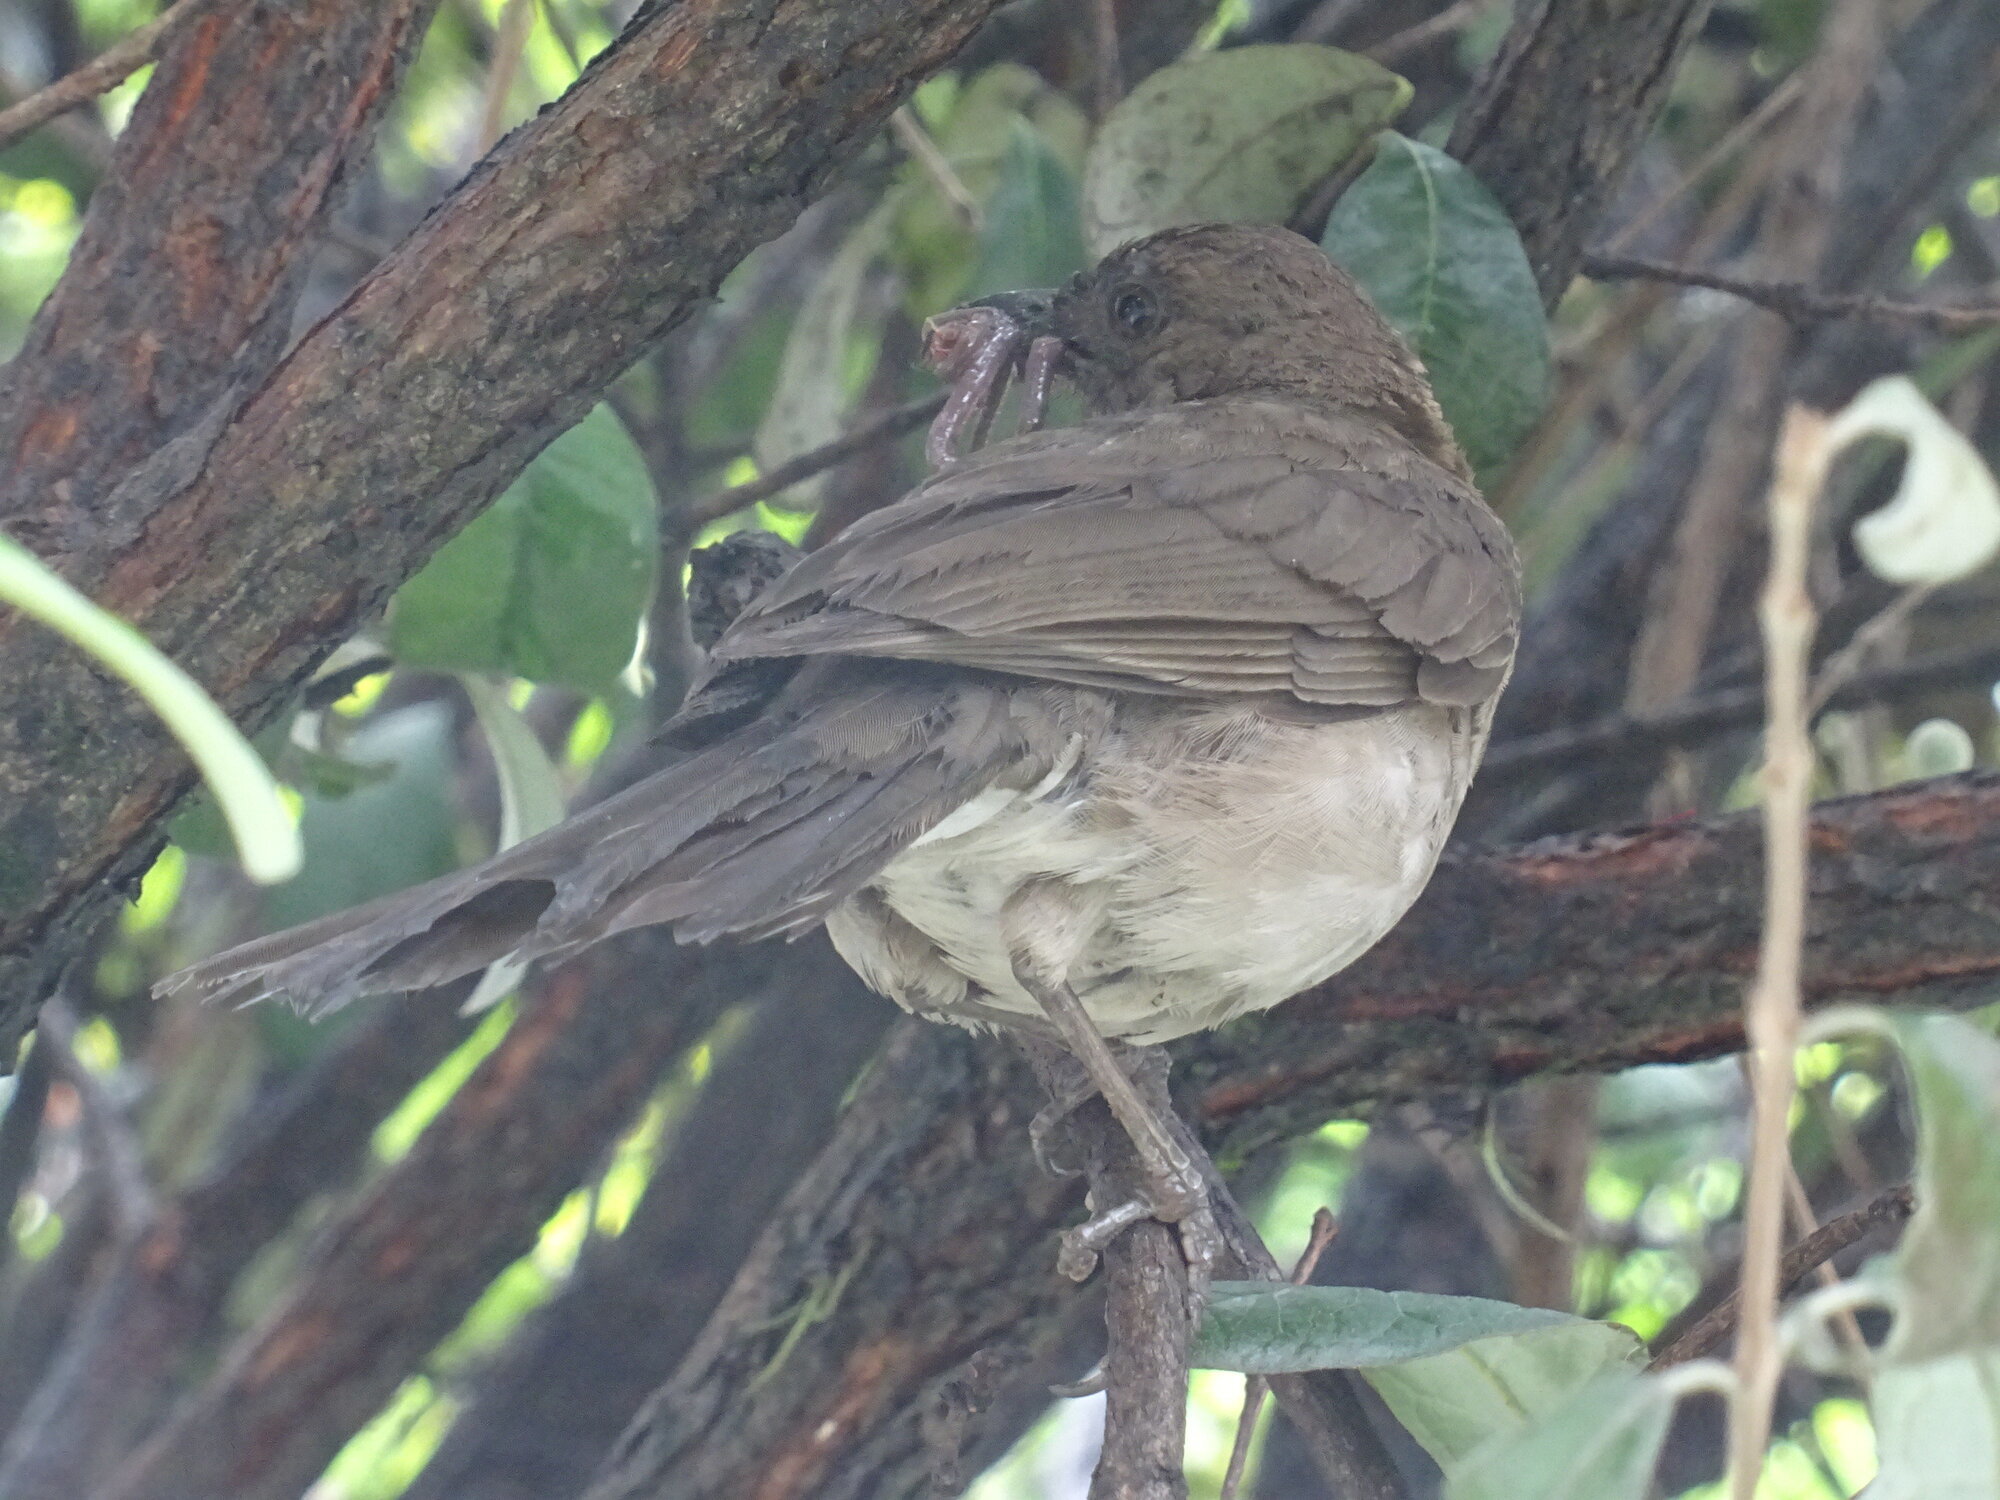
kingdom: Animalia
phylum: Chordata
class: Aves
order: Passeriformes
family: Turdidae
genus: Turdus
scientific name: Turdus ignobilis
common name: Black-billed thrush
